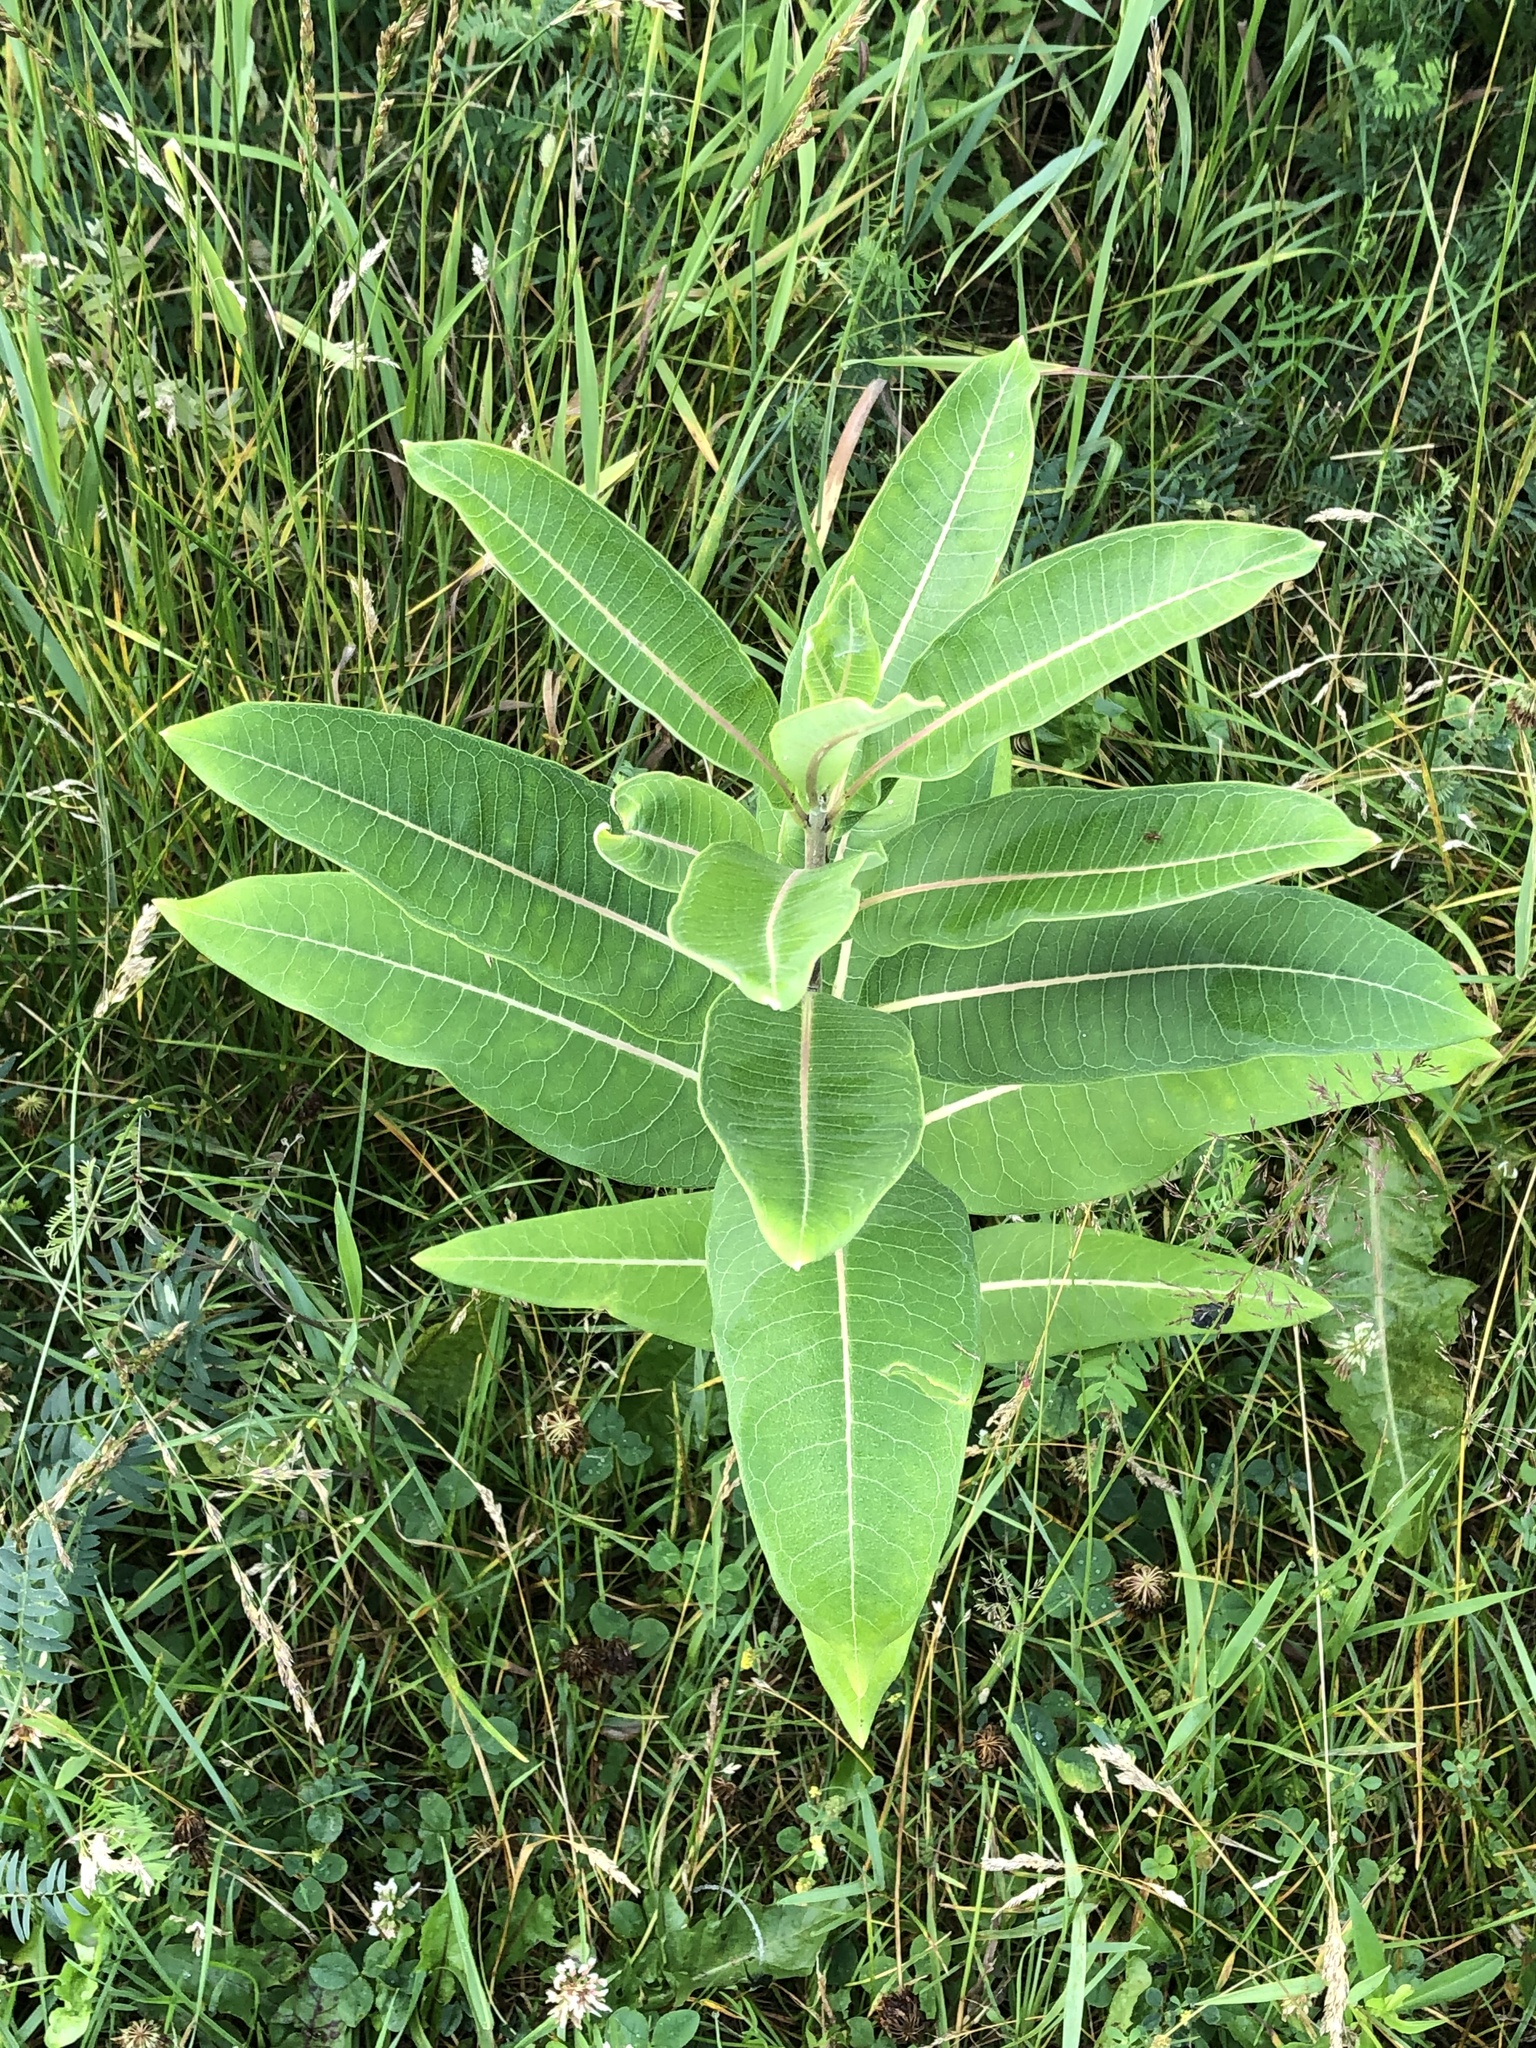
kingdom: Plantae
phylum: Tracheophyta
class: Magnoliopsida
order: Gentianales
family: Apocynaceae
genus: Asclepias
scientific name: Asclepias syriaca
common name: Common milkweed
